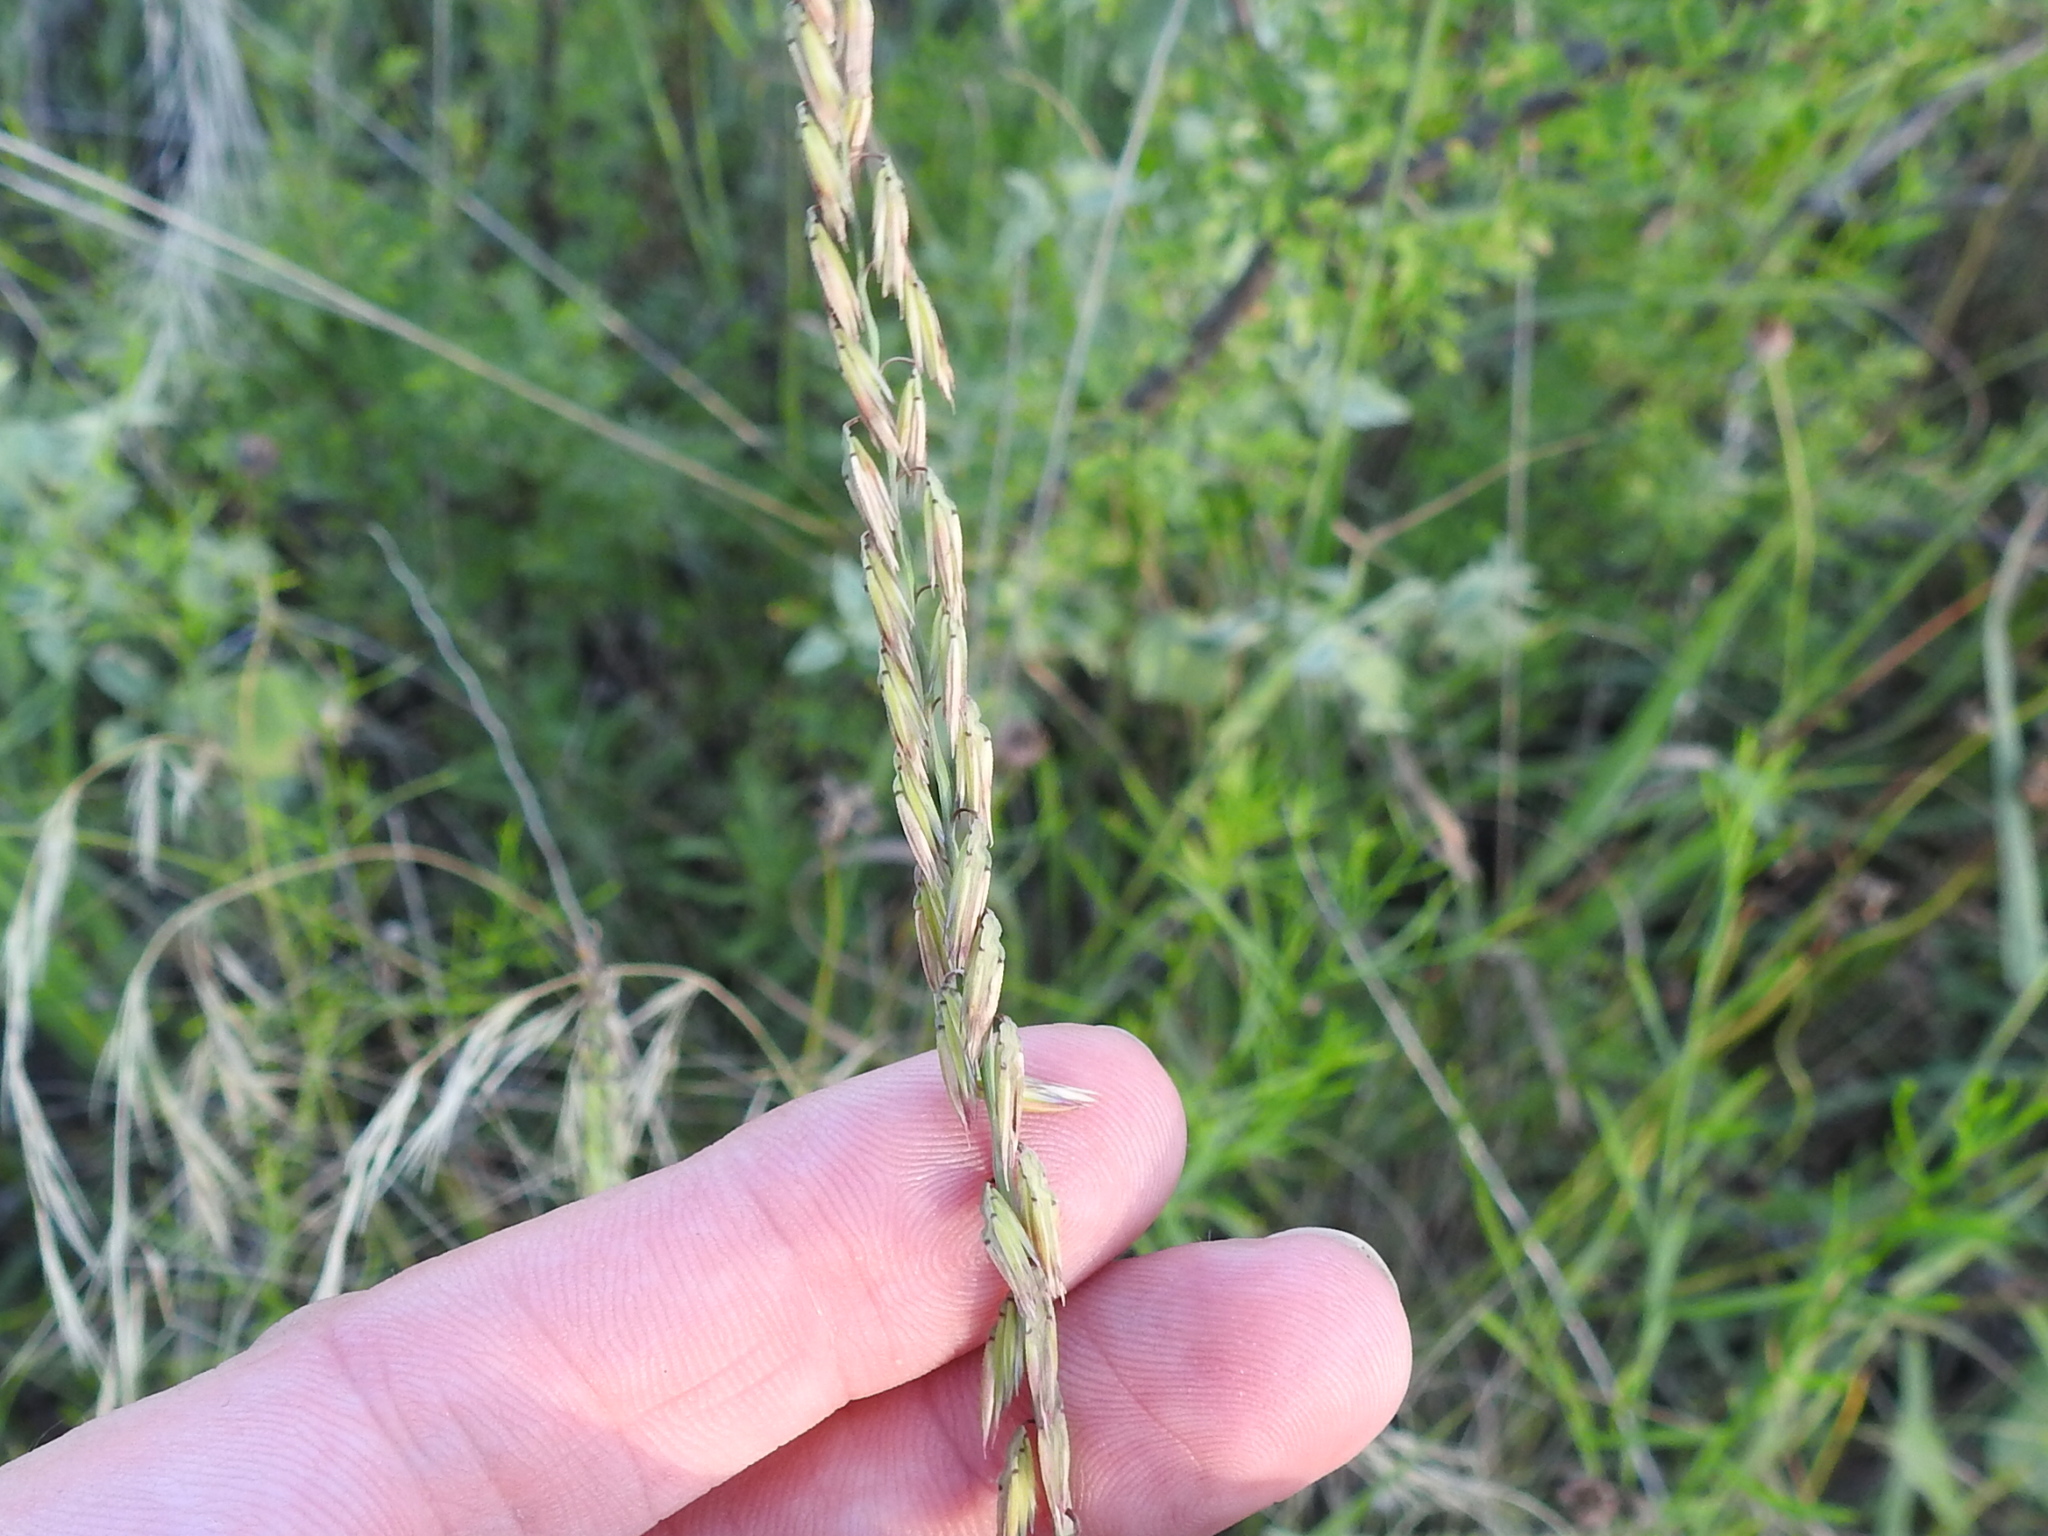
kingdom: Plantae
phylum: Tracheophyta
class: Liliopsida
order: Poales
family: Poaceae
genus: Bouteloua
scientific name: Bouteloua curtipendula
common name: Side-oats grama
